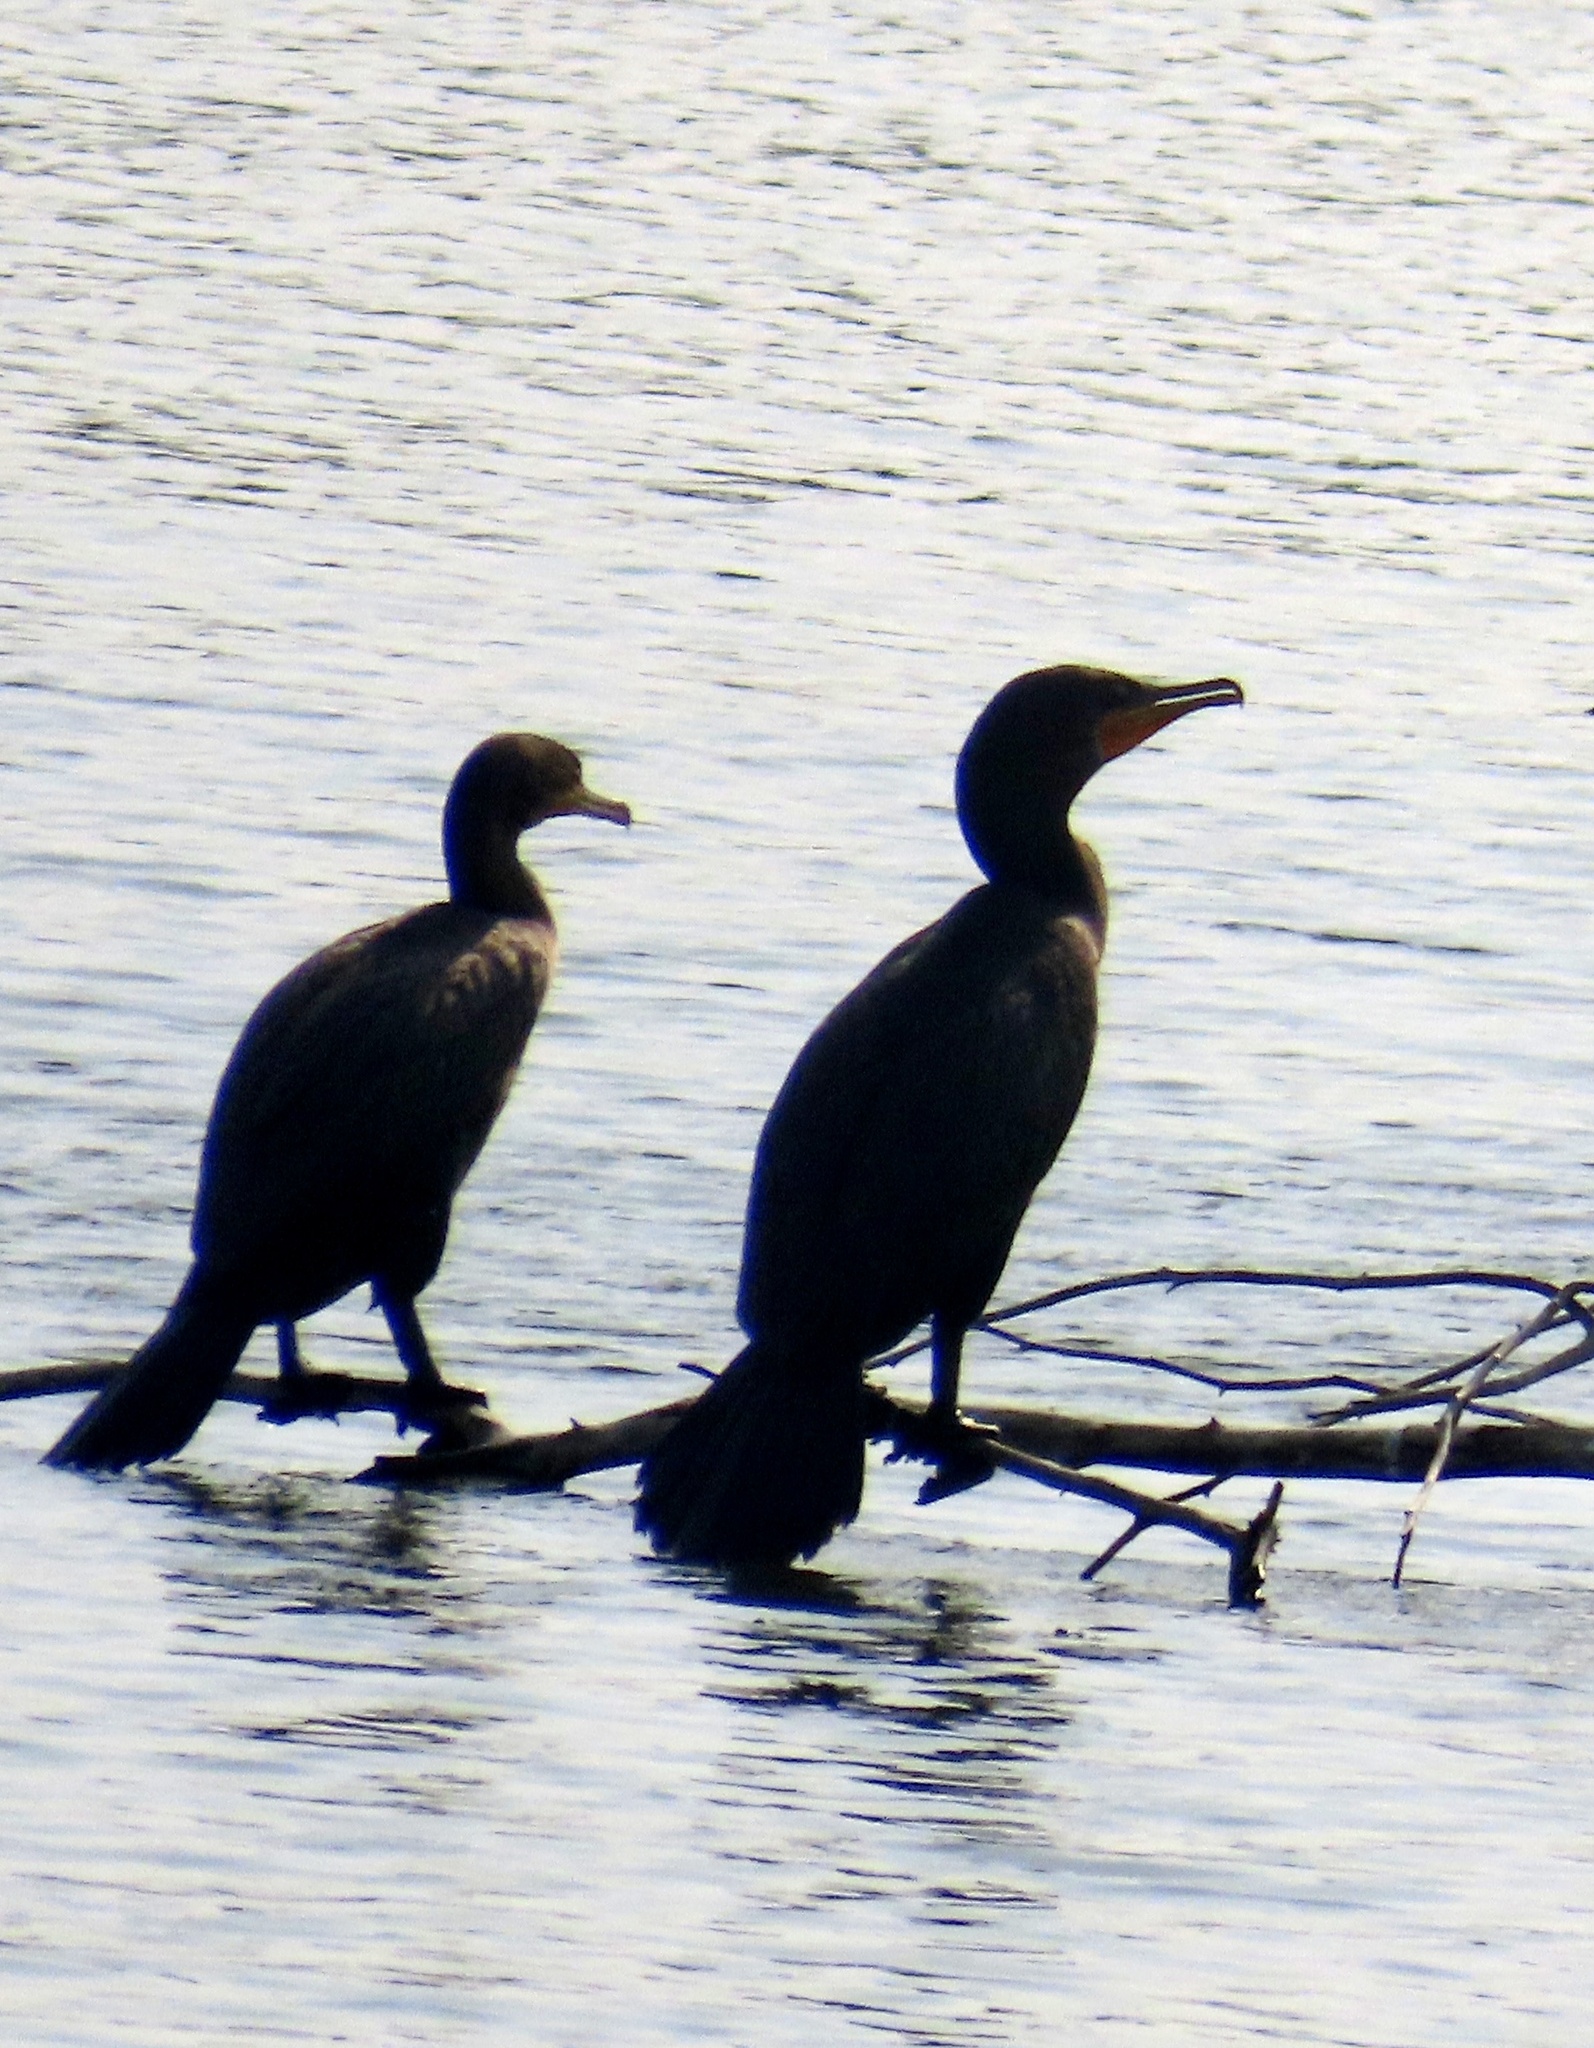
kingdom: Animalia
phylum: Chordata
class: Aves
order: Suliformes
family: Phalacrocoracidae
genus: Phalacrocorax
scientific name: Phalacrocorax auritus
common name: Double-crested cormorant
